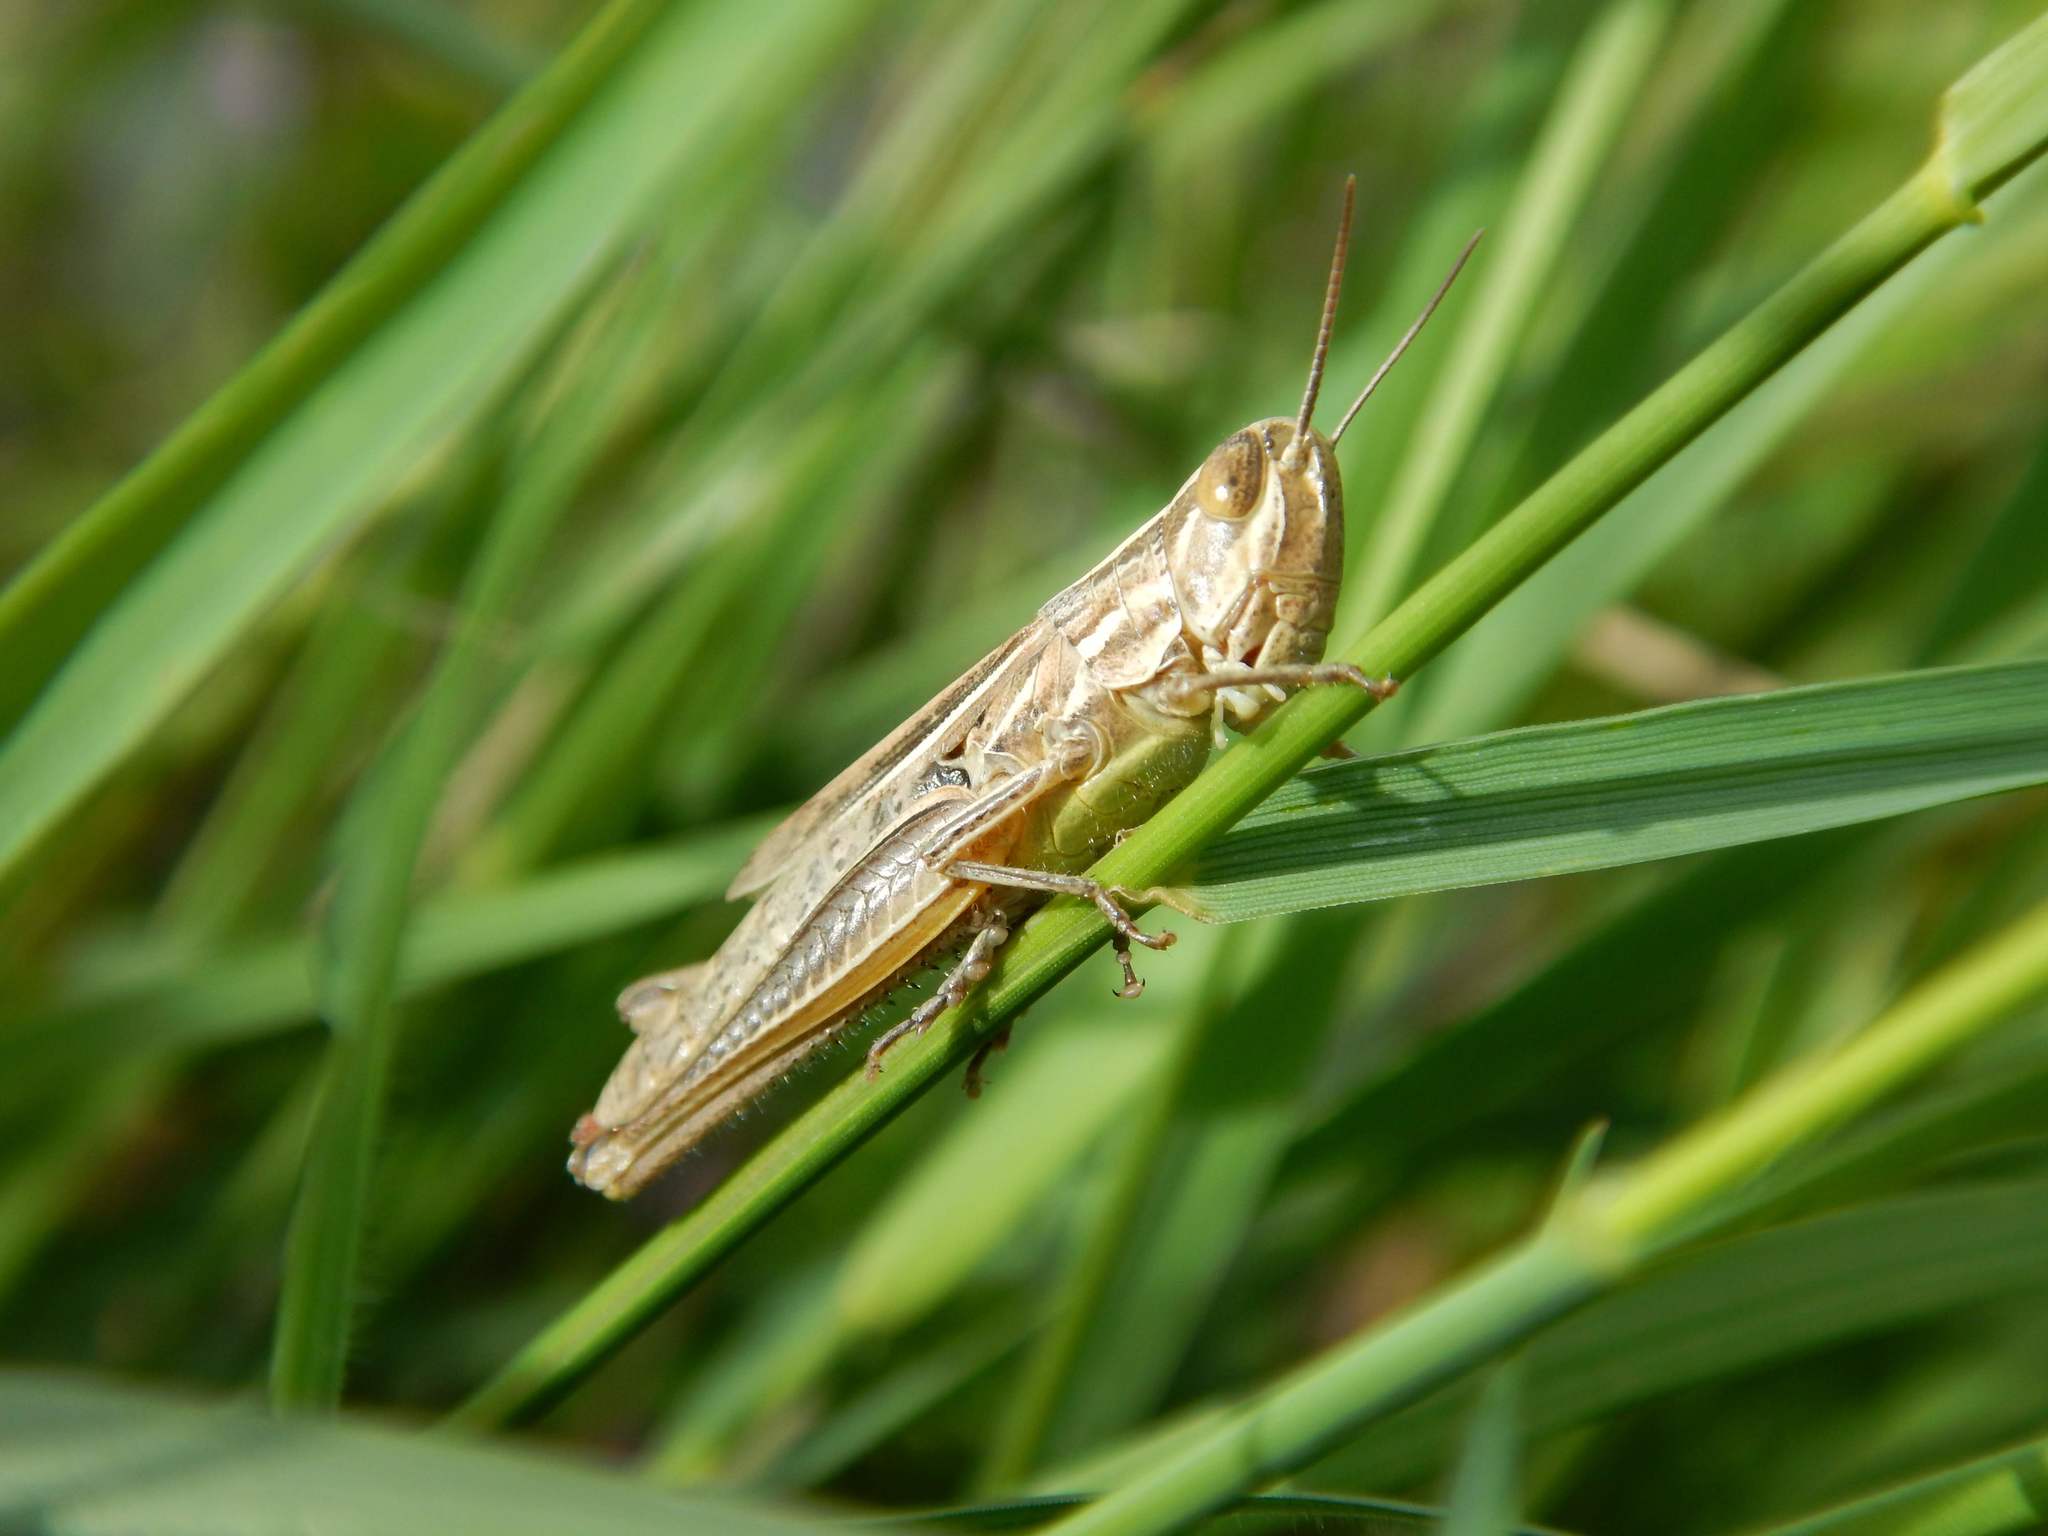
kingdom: Animalia
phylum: Arthropoda
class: Insecta
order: Orthoptera
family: Acrididae
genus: Euchorthippus
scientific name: Euchorthippus declivus
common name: Common straw grasshopper
